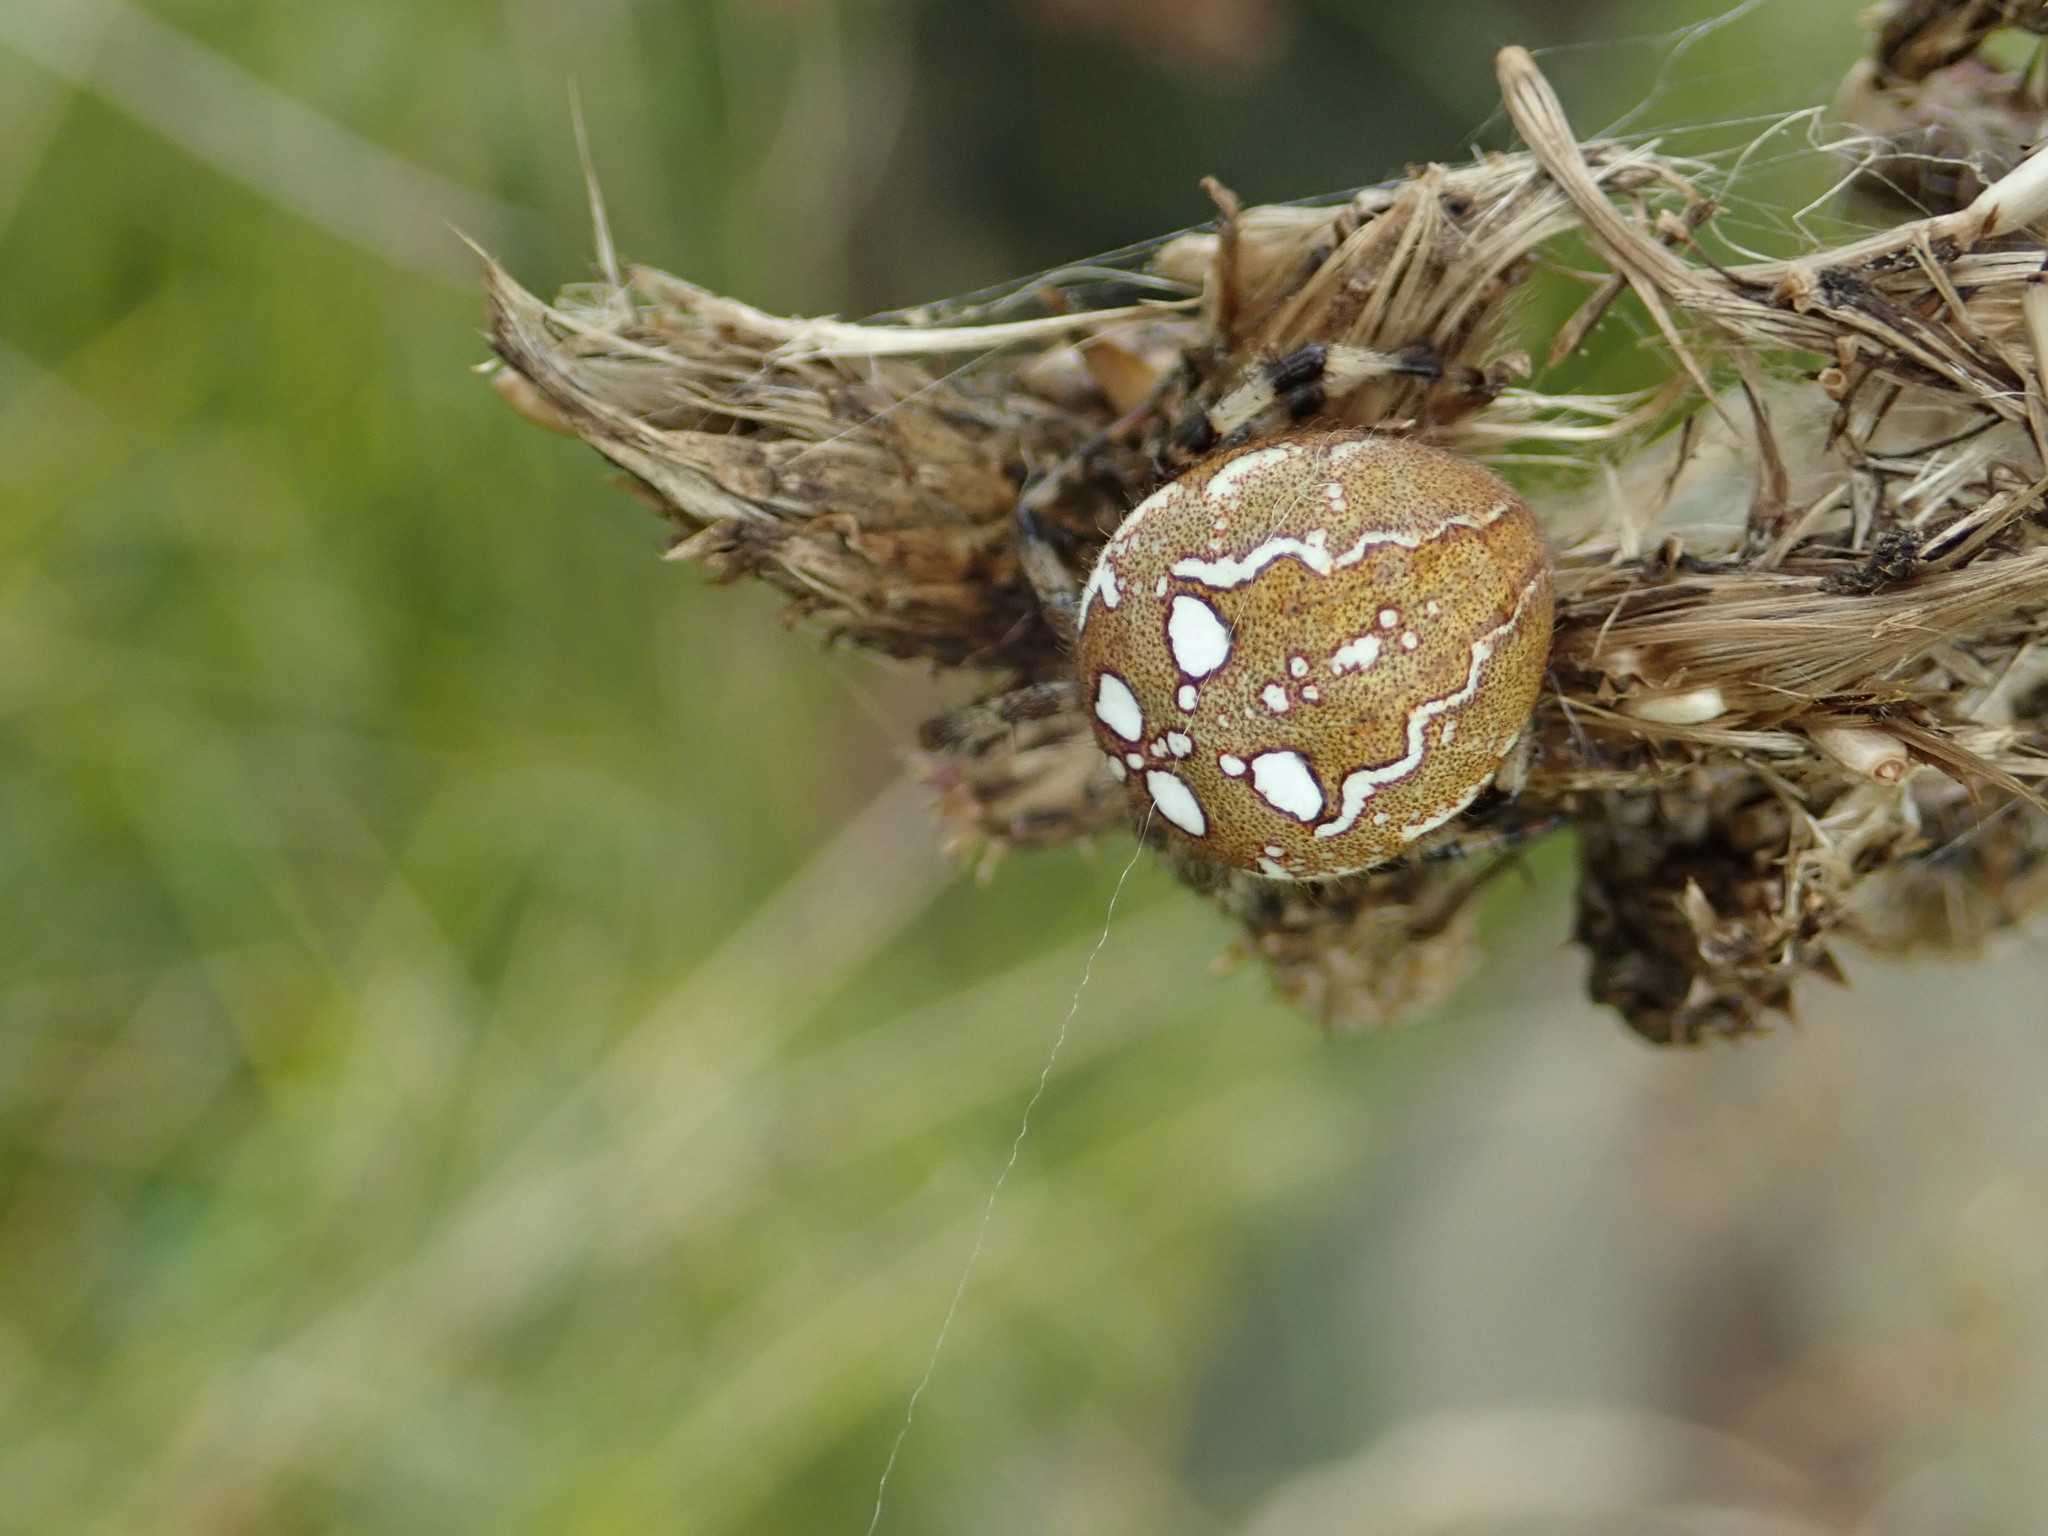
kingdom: Animalia
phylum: Arthropoda
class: Arachnida
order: Araneae
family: Araneidae
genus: Araneus
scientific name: Araneus quadratus
